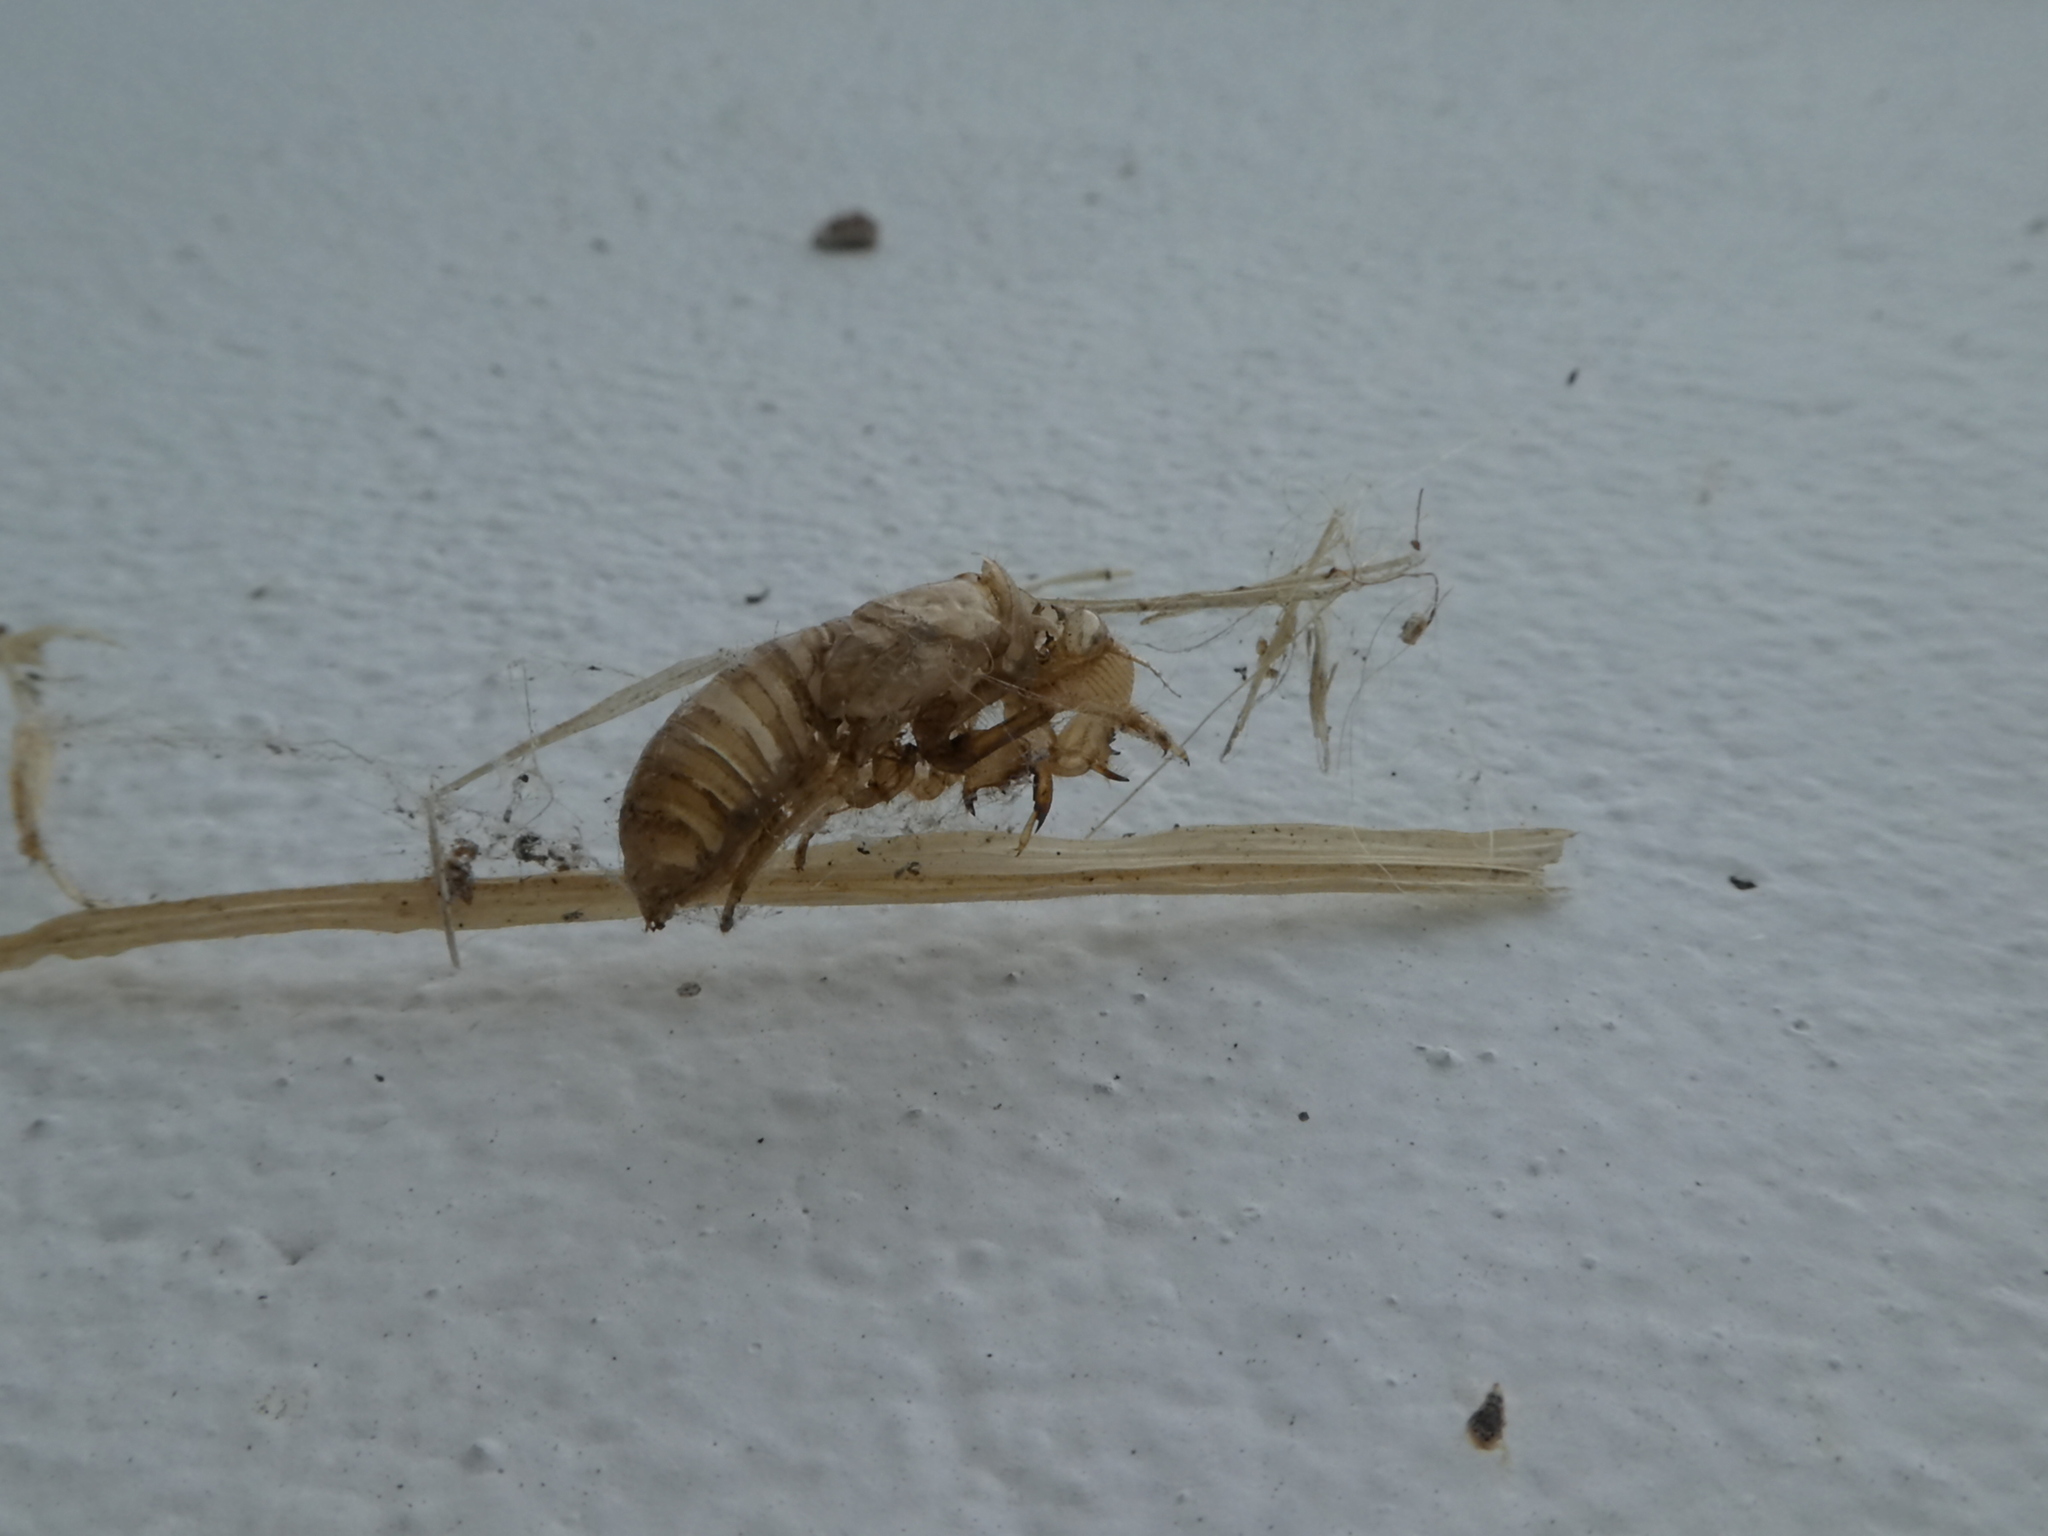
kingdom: Animalia
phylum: Arthropoda
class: Insecta
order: Hemiptera
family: Cicadidae
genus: Tibicinoides
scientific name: Tibicinoides
